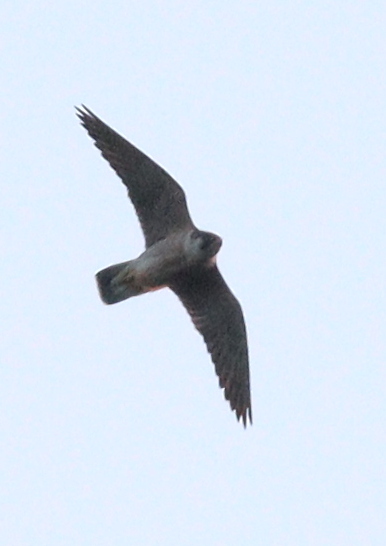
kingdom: Animalia
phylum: Chordata
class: Aves
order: Falconiformes
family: Falconidae
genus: Falco
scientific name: Falco peregrinus
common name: Peregrine falcon
